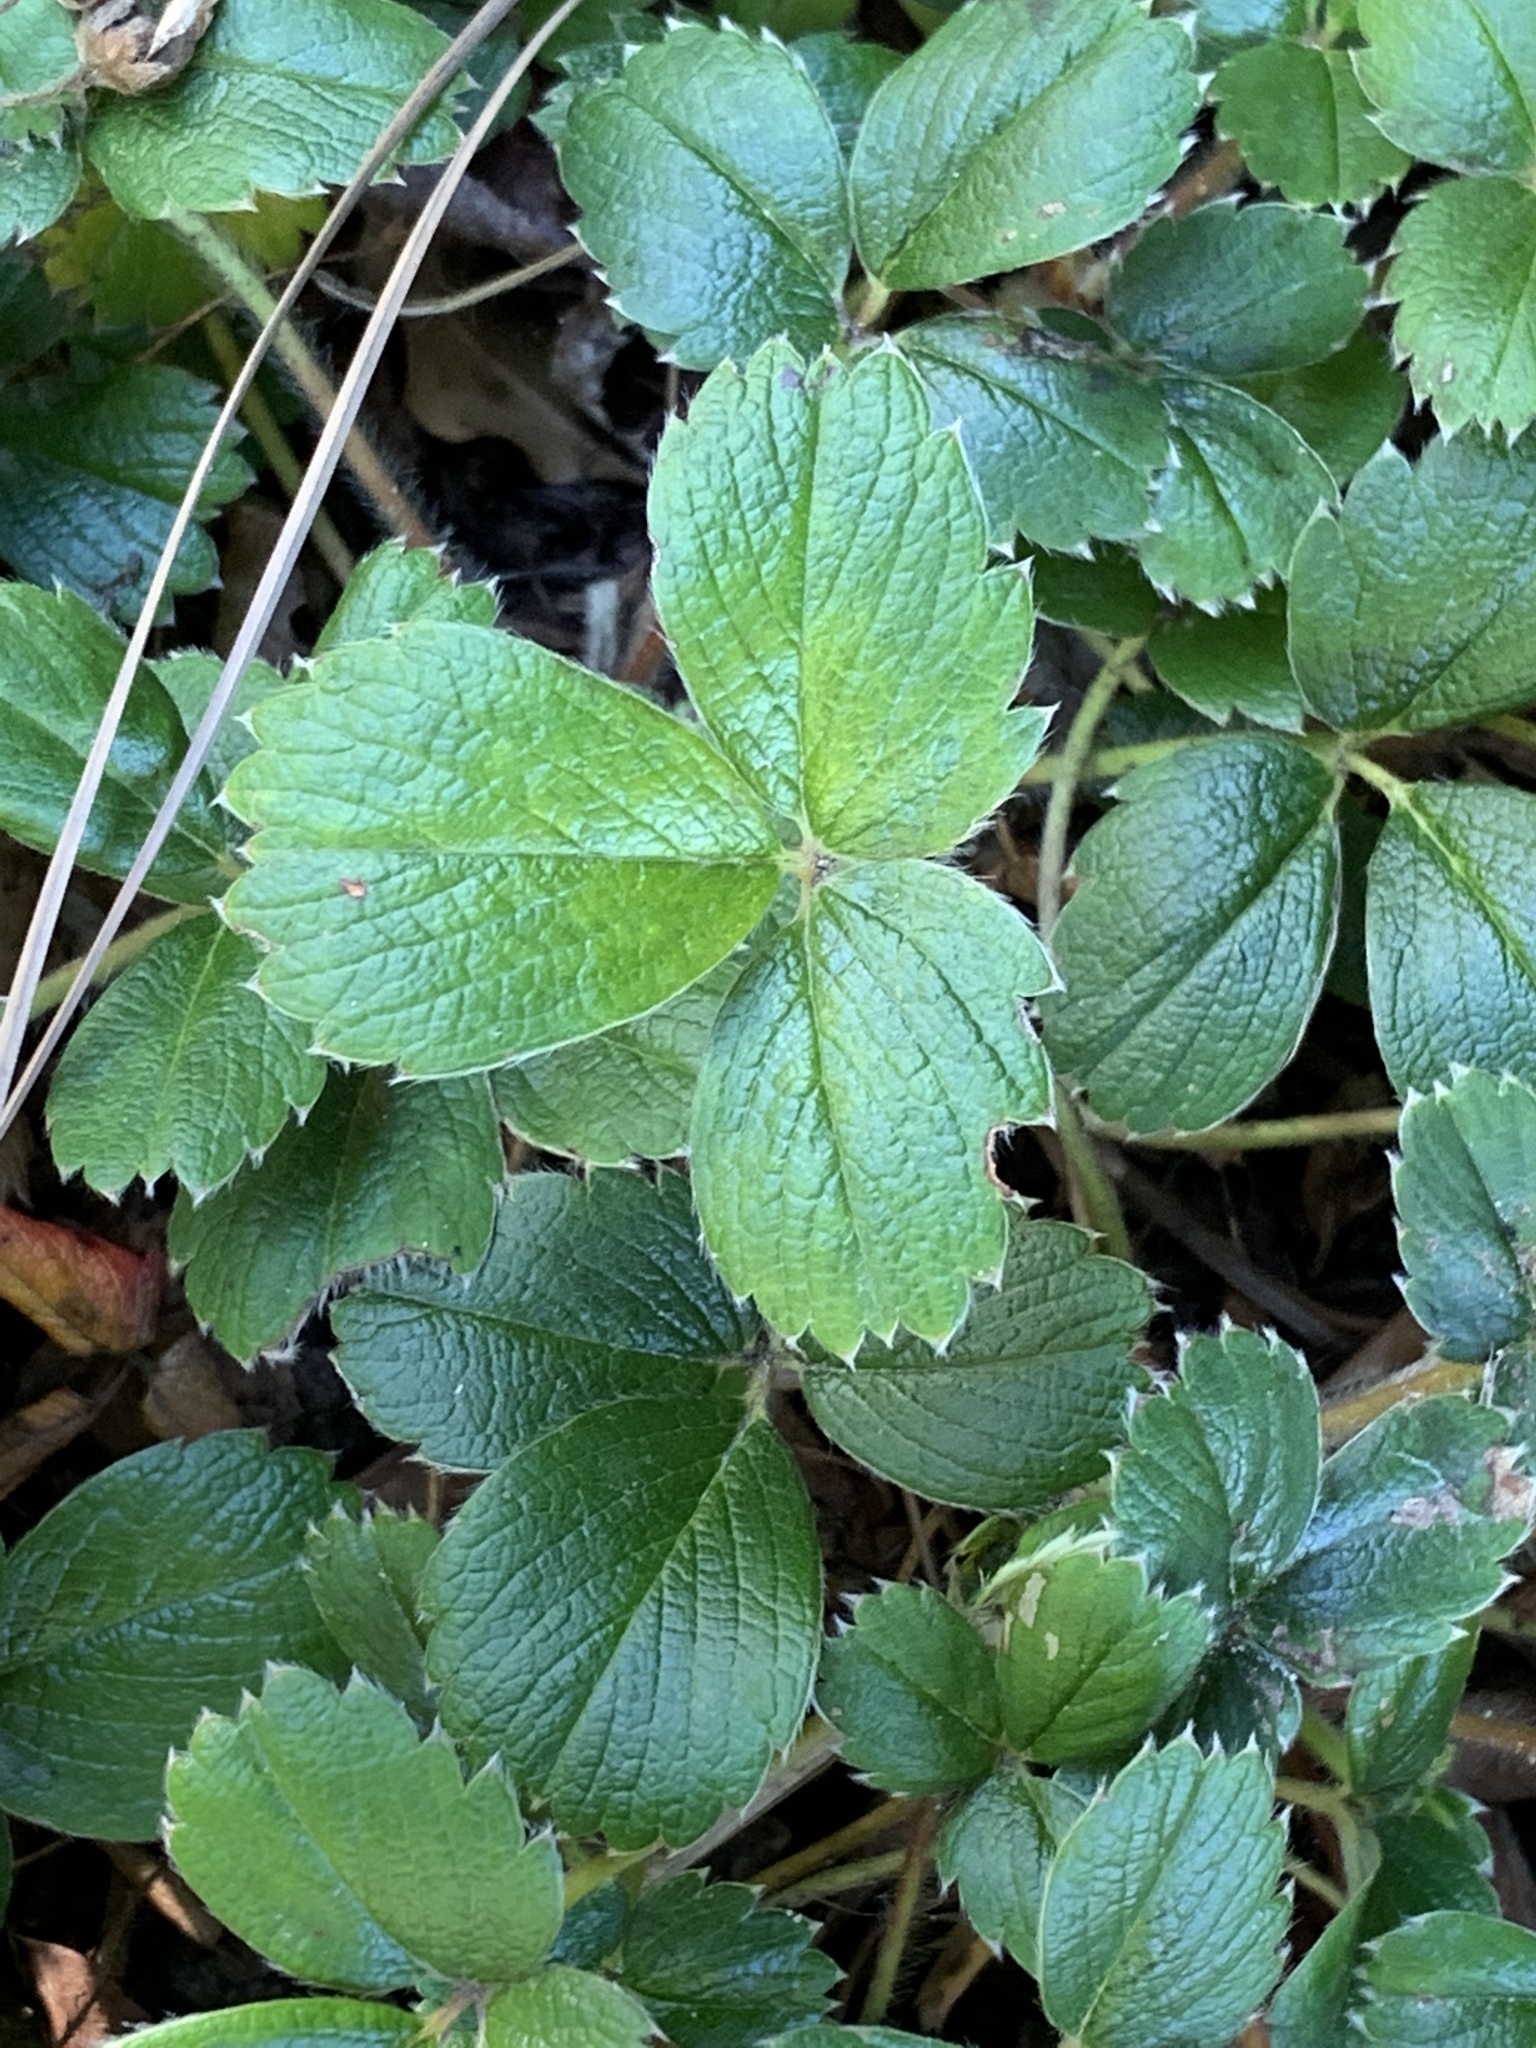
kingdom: Plantae
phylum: Tracheophyta
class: Magnoliopsida
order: Rosales
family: Rosaceae
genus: Fragaria
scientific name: Fragaria chiloensis
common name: Beach strawberry
